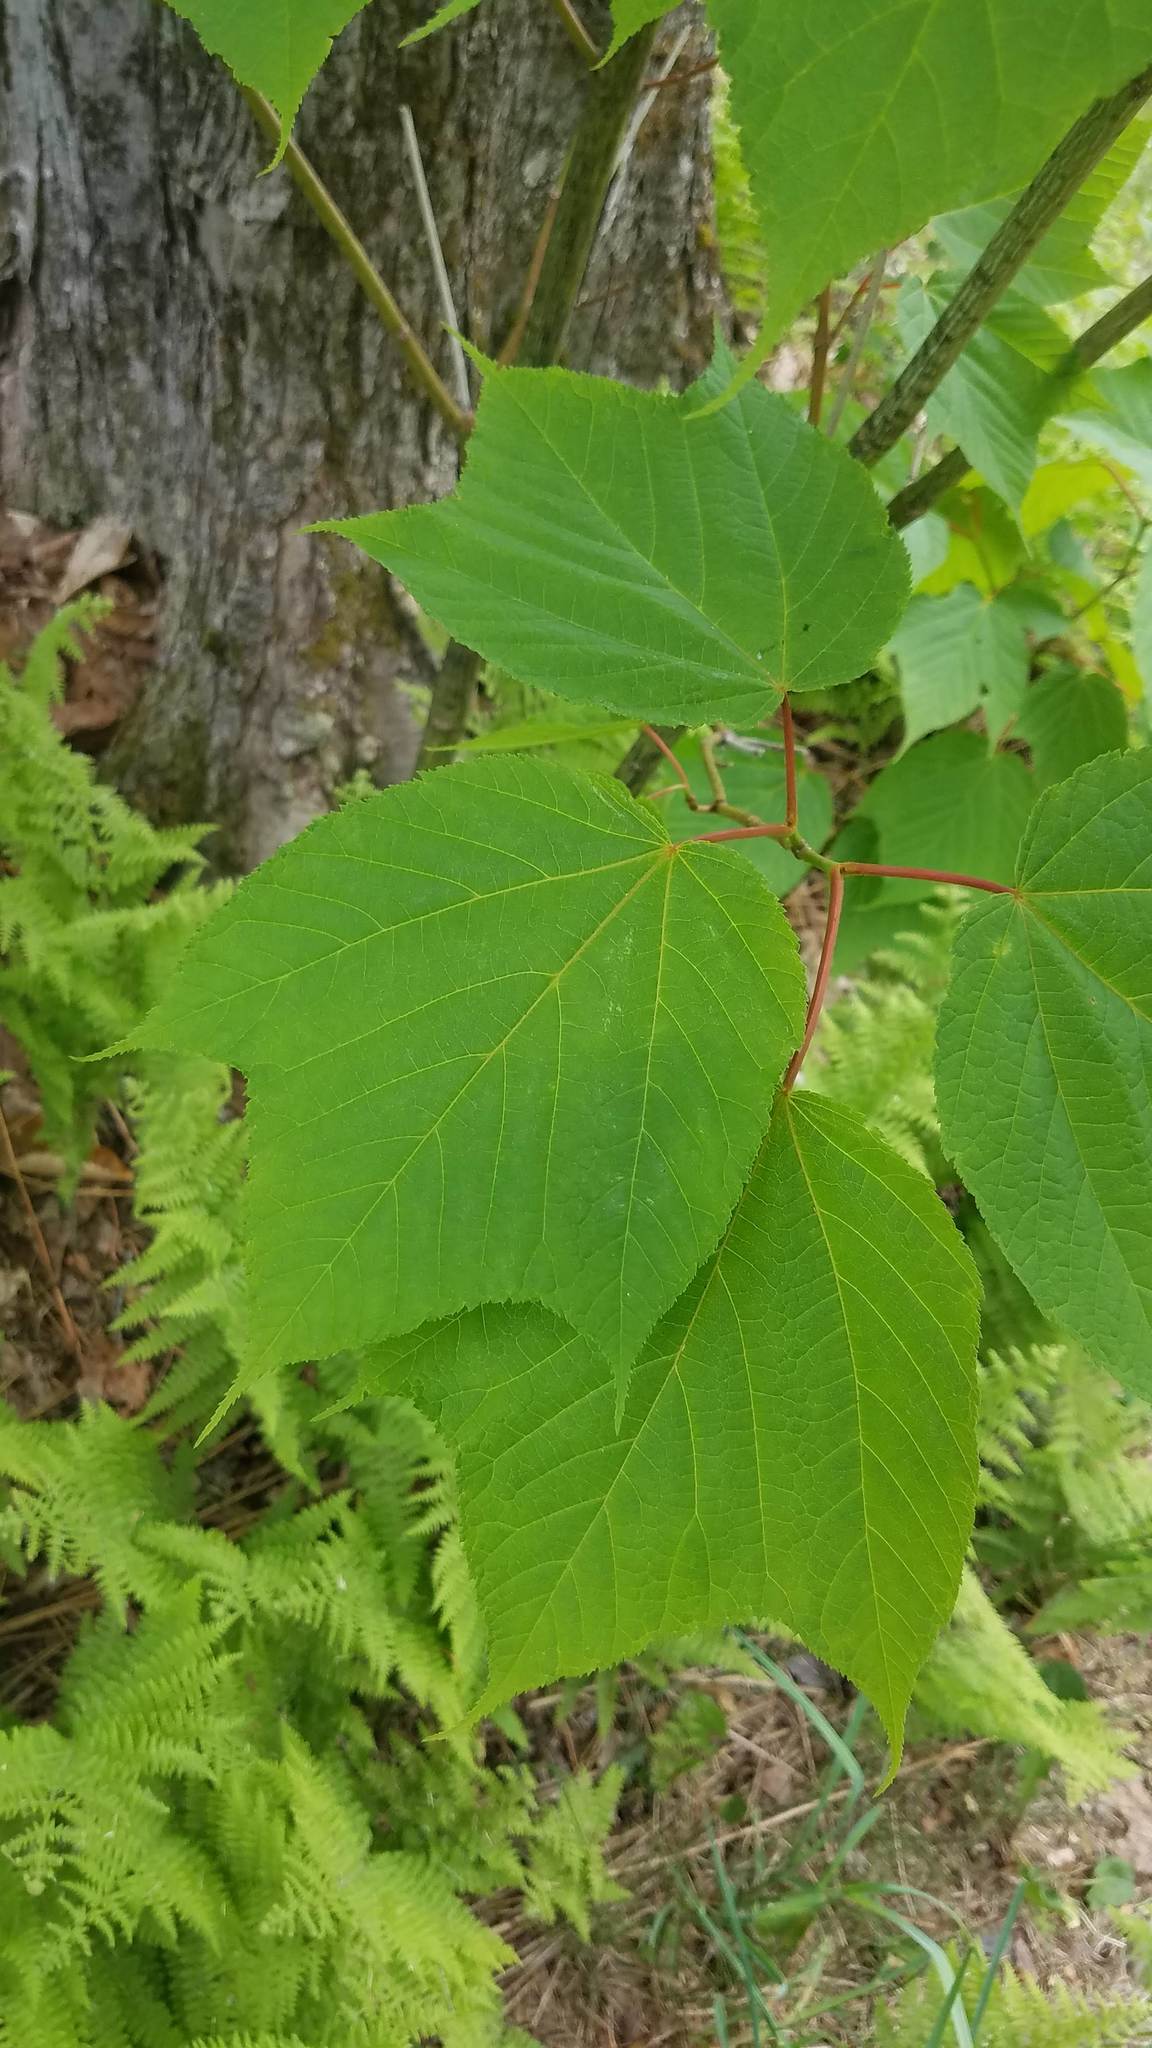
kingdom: Plantae
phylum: Tracheophyta
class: Magnoliopsida
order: Sapindales
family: Sapindaceae
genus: Acer
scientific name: Acer pensylvanicum
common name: Moosewood
